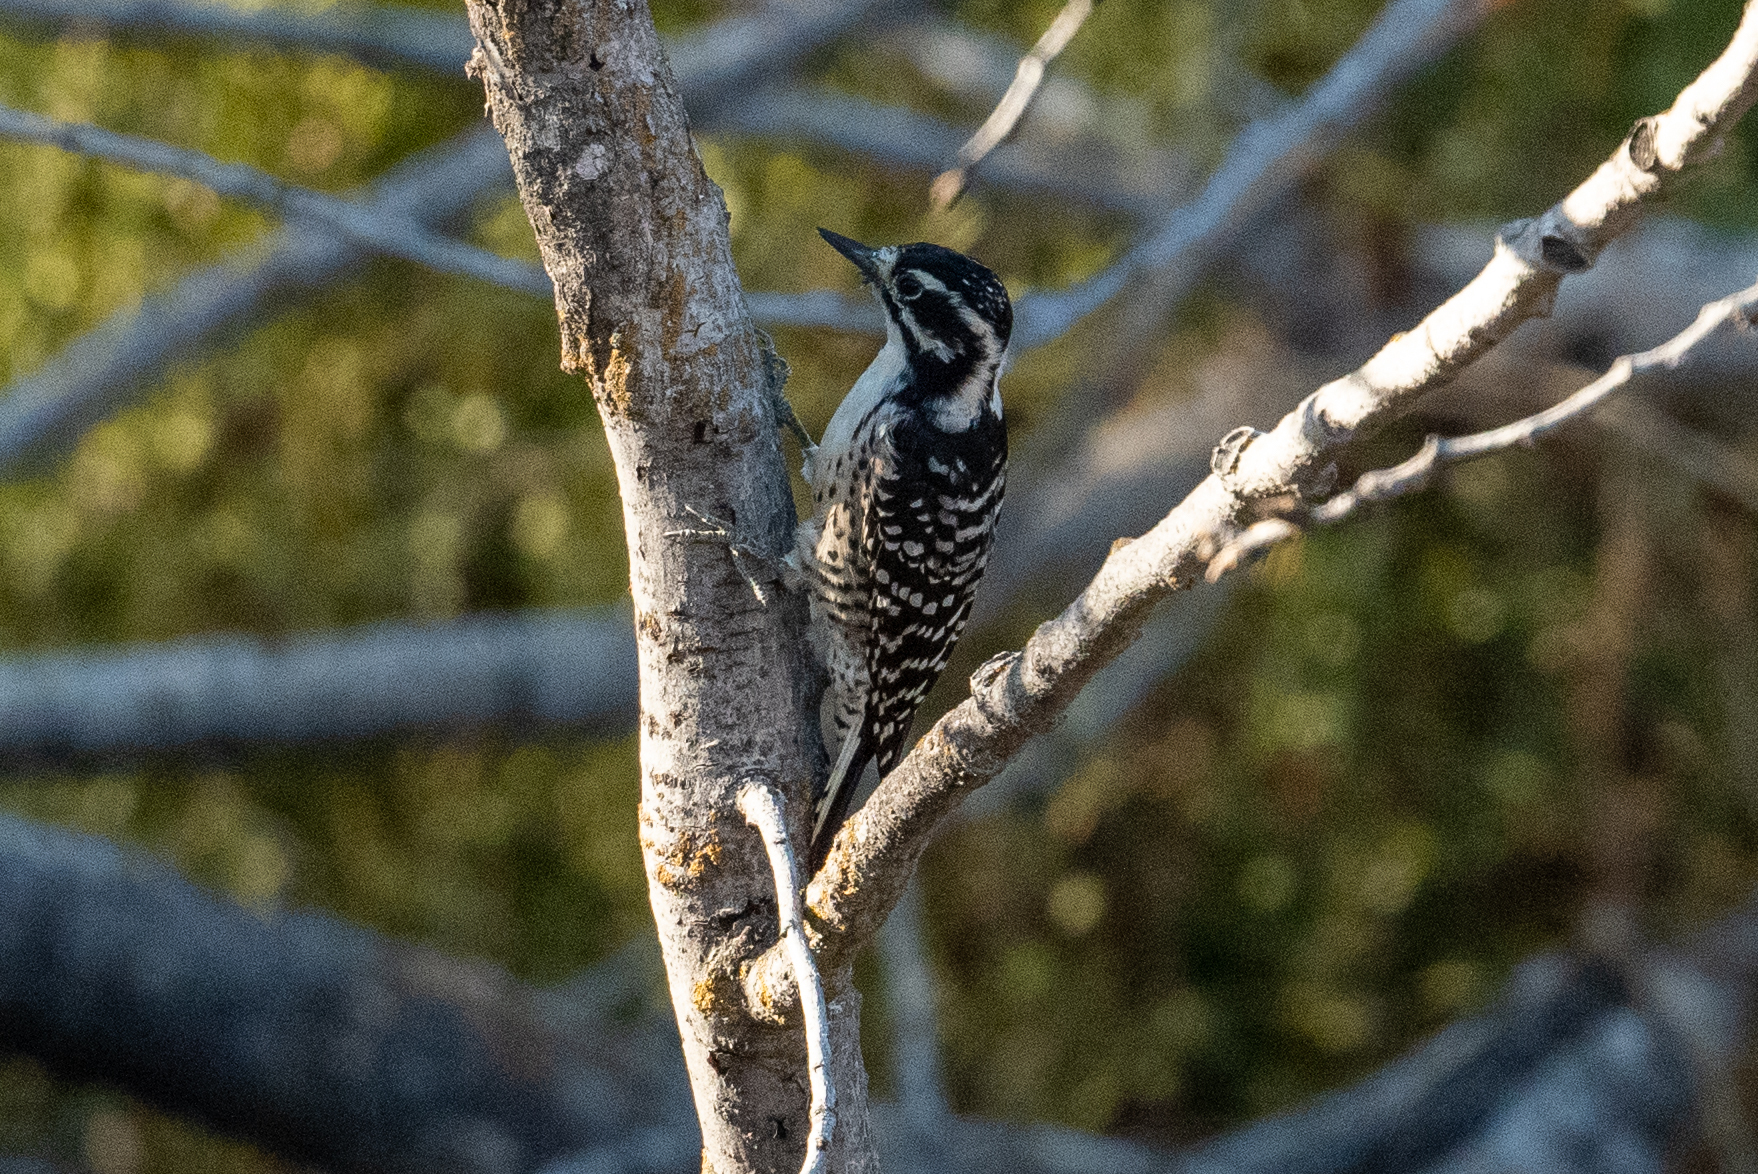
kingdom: Animalia
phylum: Chordata
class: Aves
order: Piciformes
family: Picidae
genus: Dryobates
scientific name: Dryobates nuttallii
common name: Nuttall's woodpecker
